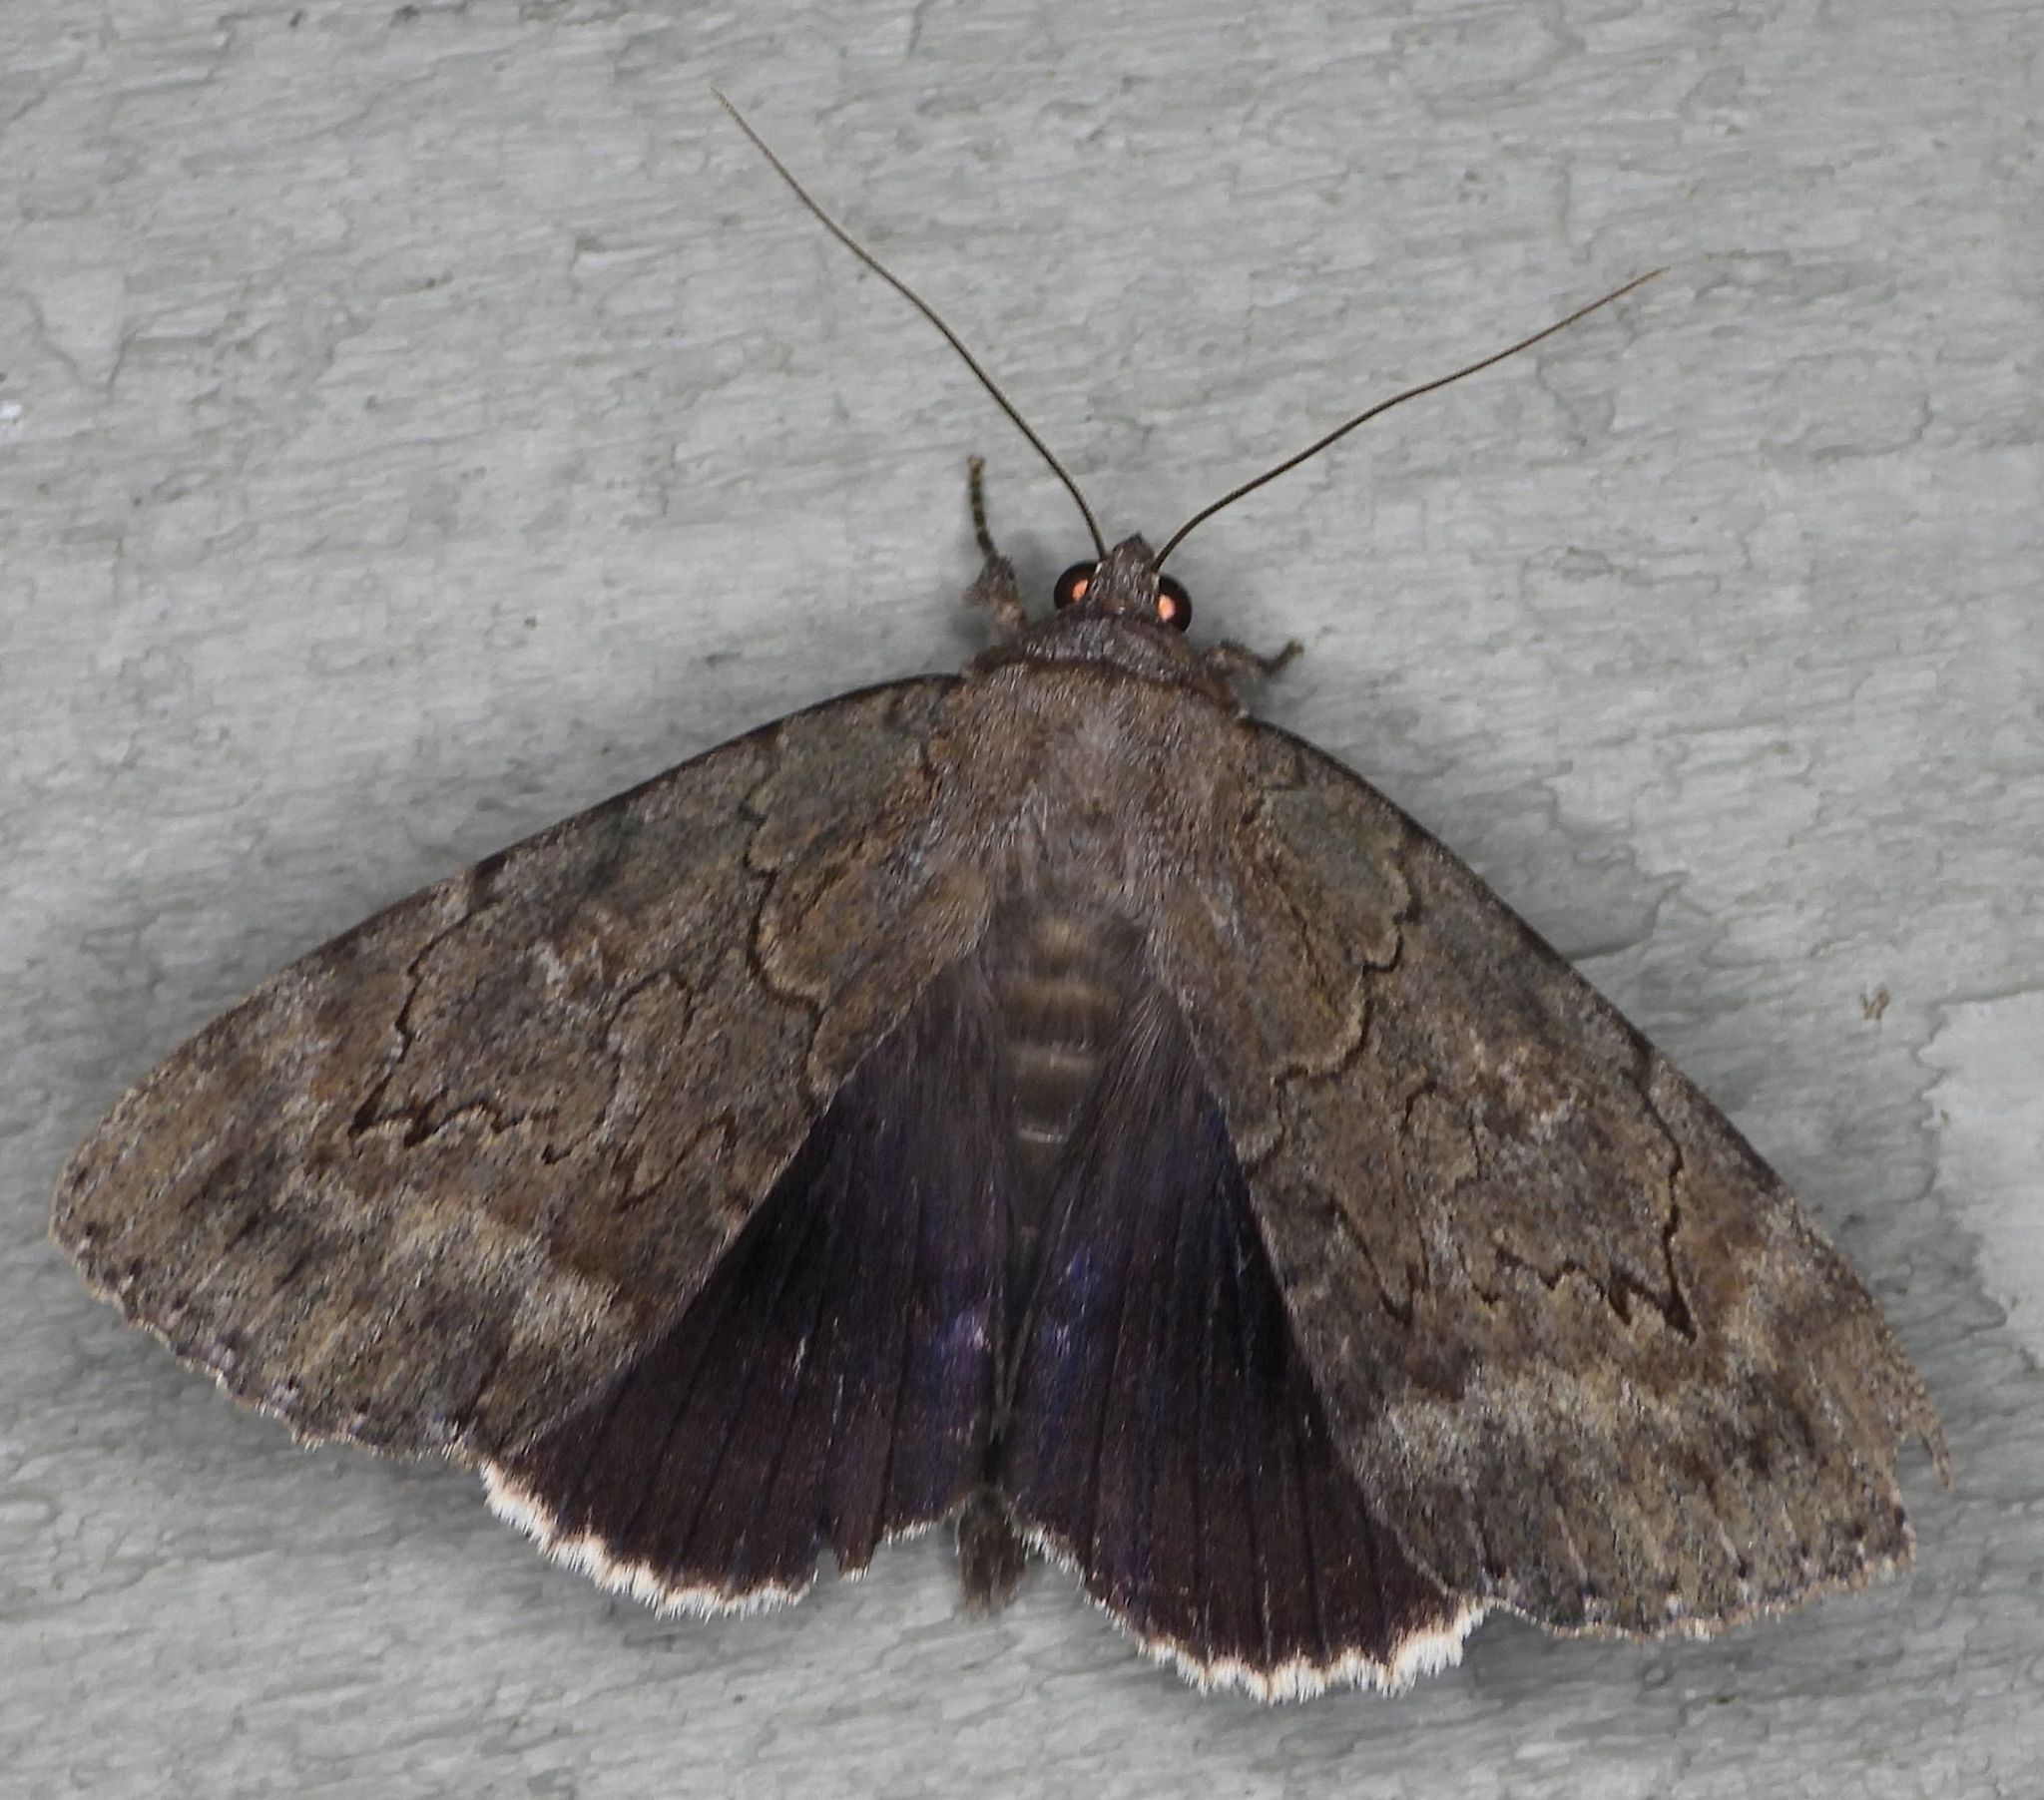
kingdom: Animalia
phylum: Arthropoda
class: Insecta
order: Lepidoptera
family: Erebidae
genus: Catocala
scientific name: Catocala obscura
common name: Obscure underwing moth
